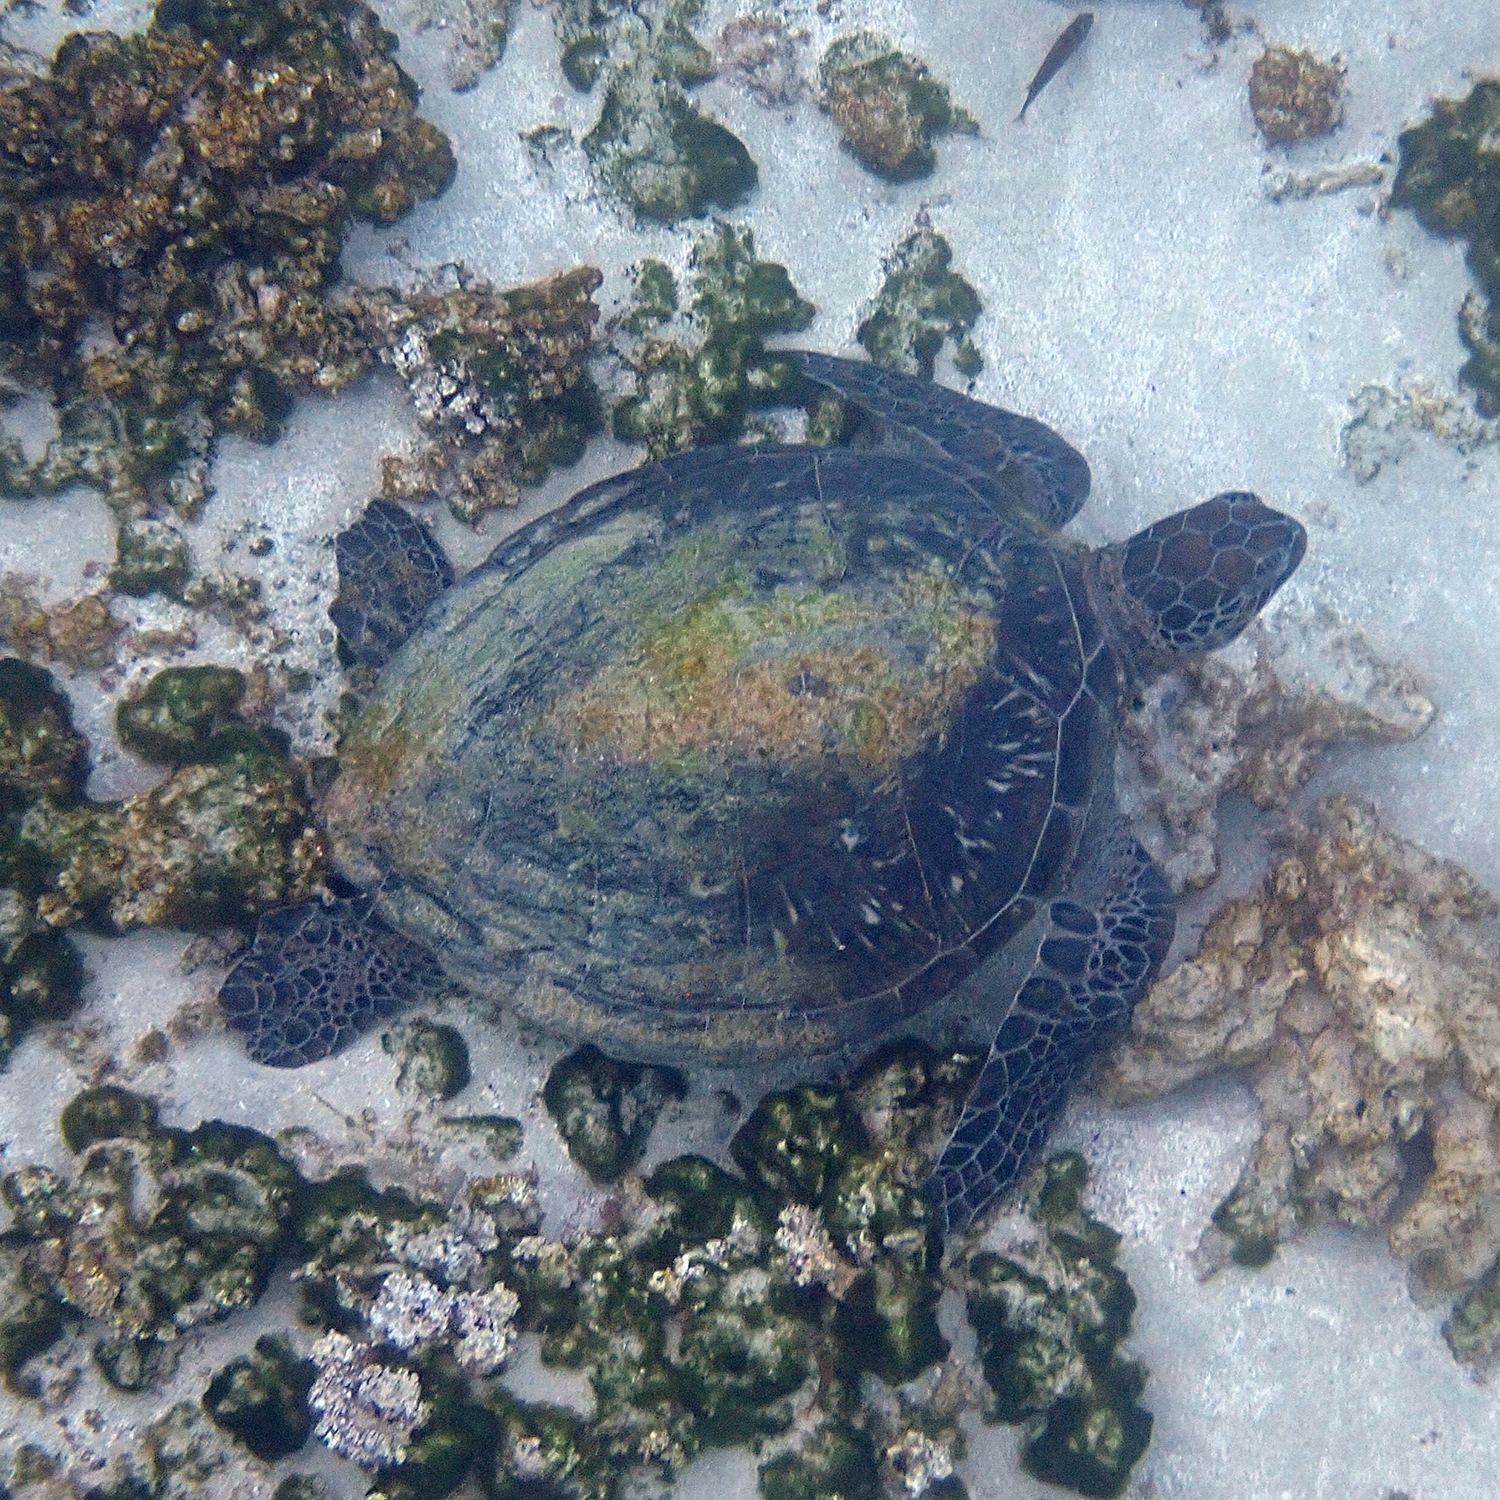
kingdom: Animalia
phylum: Chordata
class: Testudines
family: Cheloniidae
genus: Chelonia
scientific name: Chelonia mydas
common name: Green turtle
